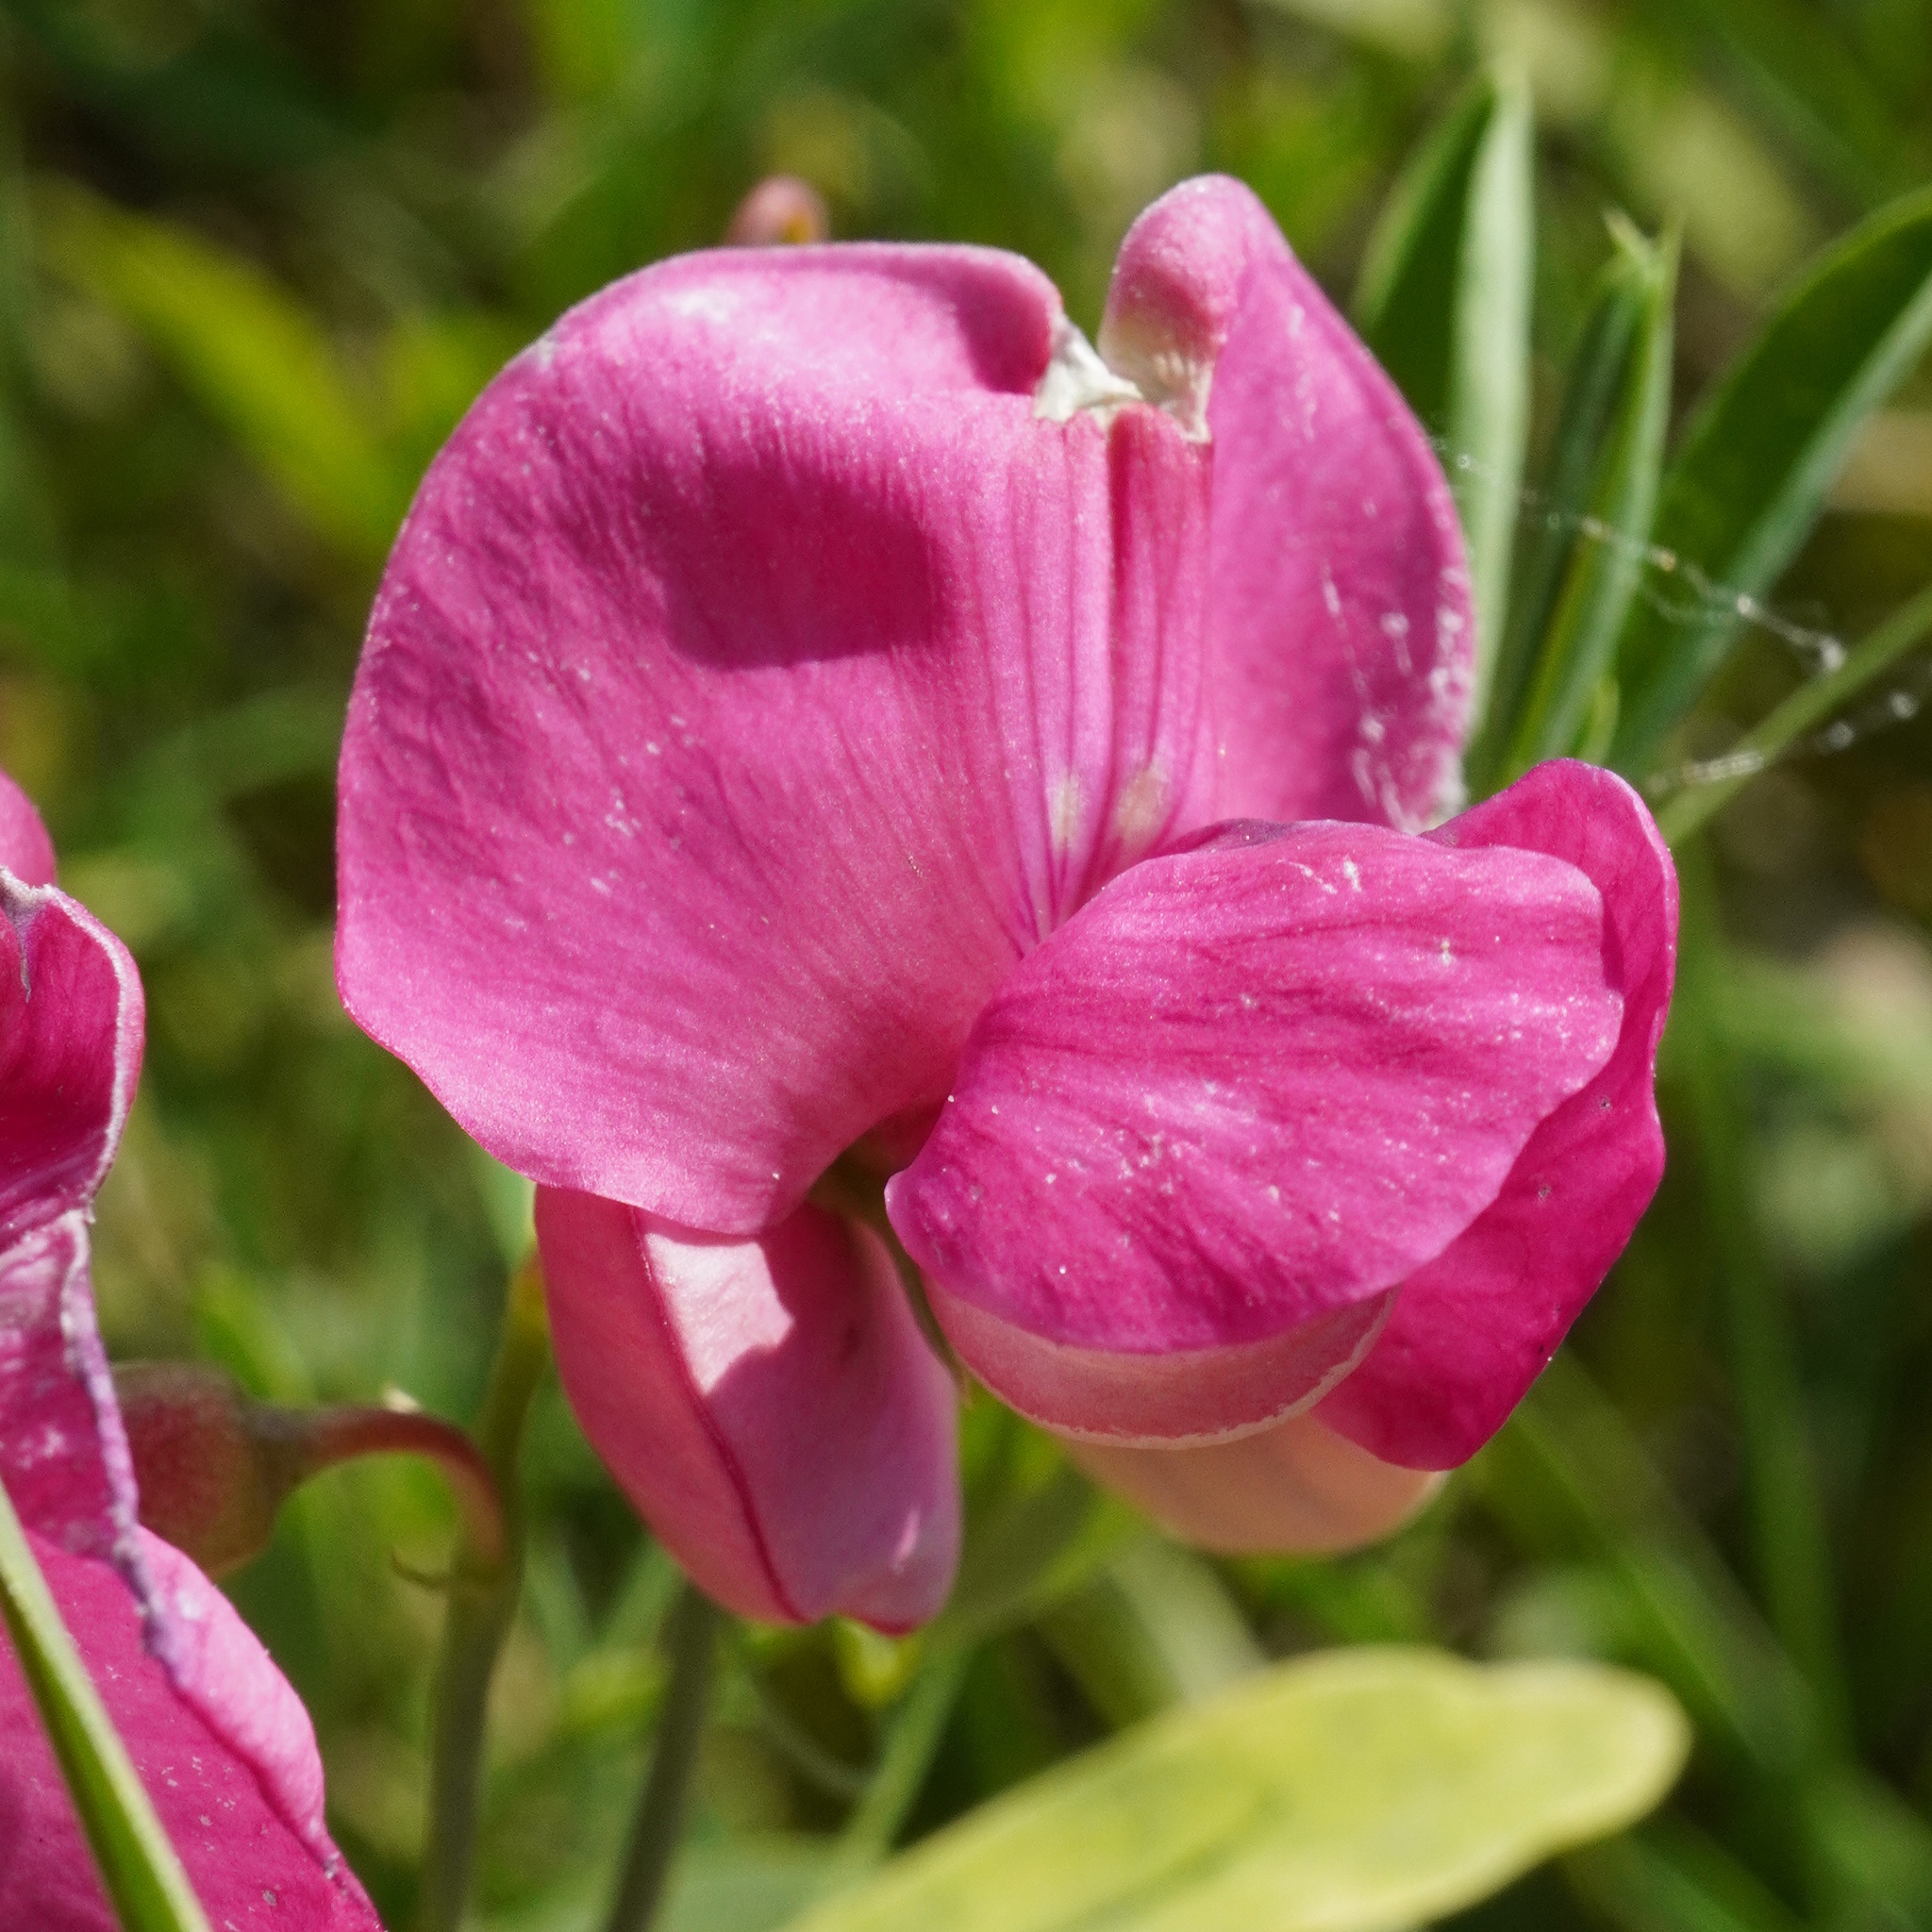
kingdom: Plantae
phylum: Tracheophyta
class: Magnoliopsida
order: Fabales
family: Fabaceae
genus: Lathyrus
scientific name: Lathyrus tuberosus
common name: Tuberous pea
